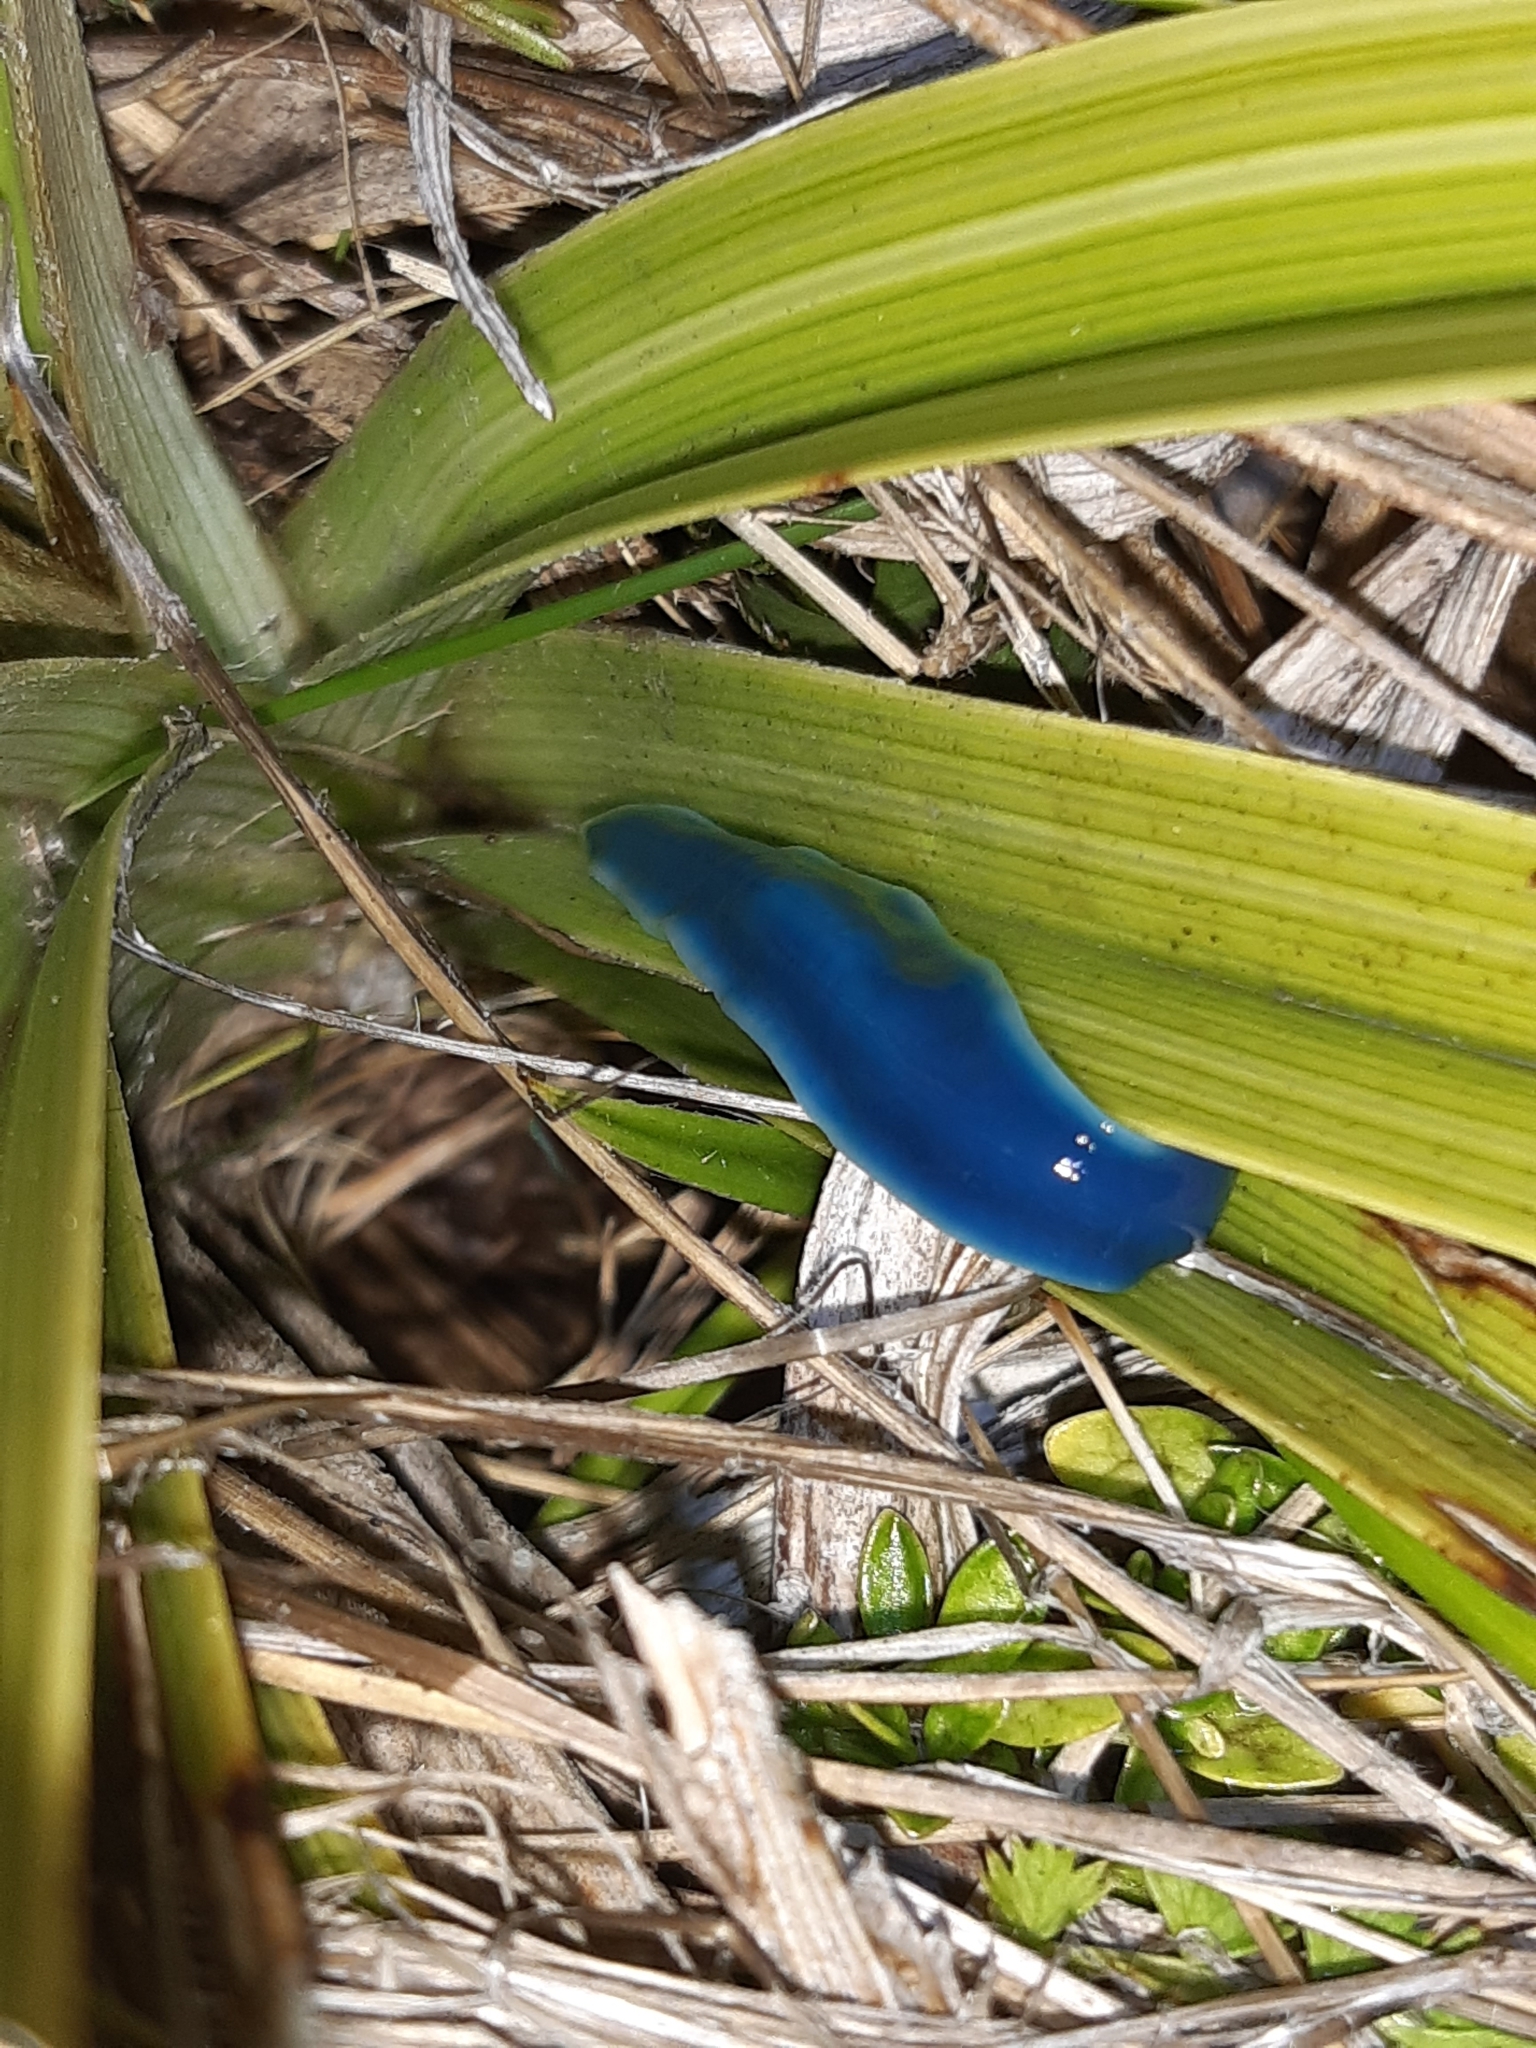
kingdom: Animalia
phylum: Platyhelminthes
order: Tricladida
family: Geoplanidae
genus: Australopacifica
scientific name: Australopacifica
